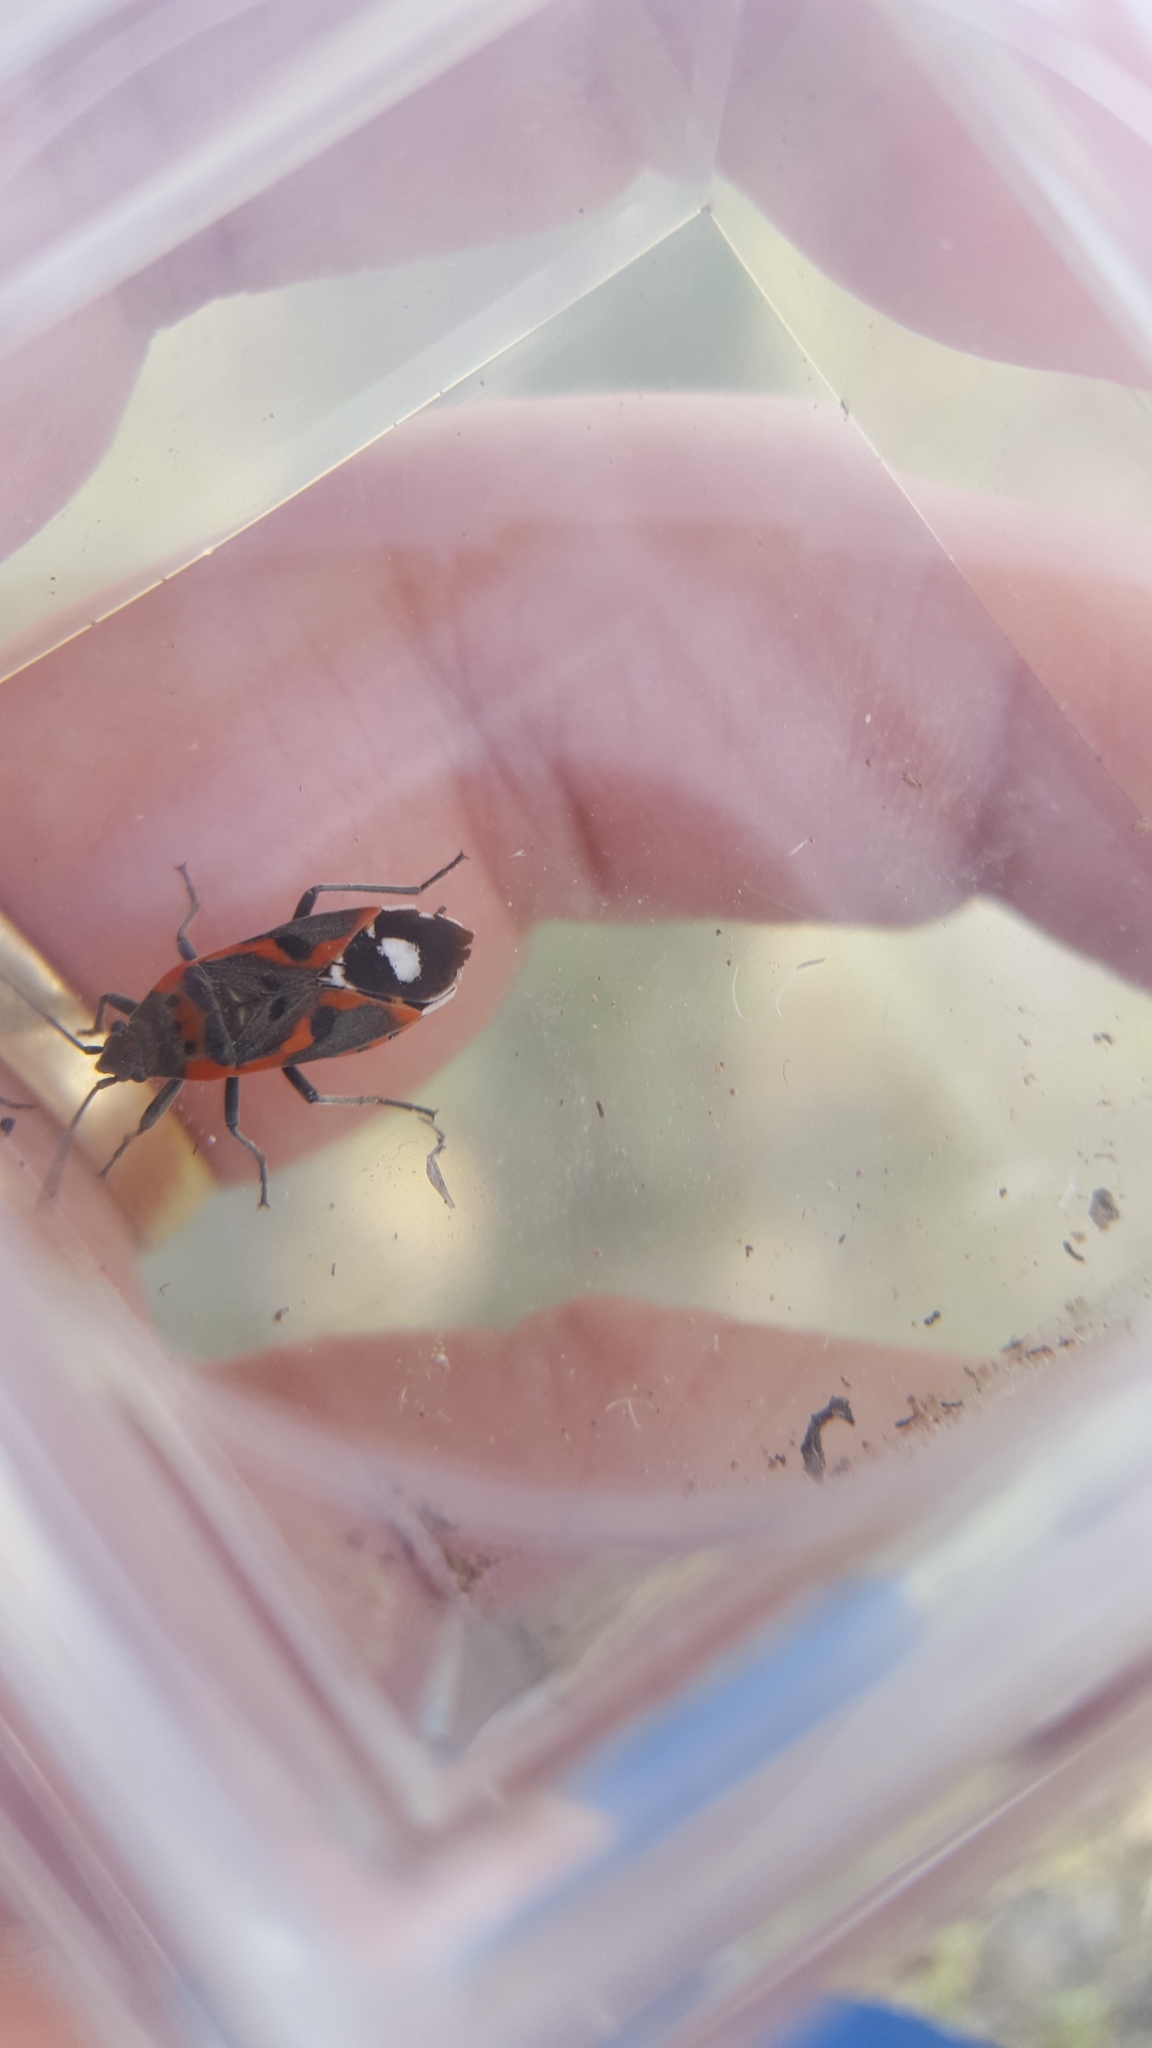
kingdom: Animalia
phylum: Arthropoda
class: Insecta
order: Hemiptera
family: Lygaeidae
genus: Lygaeus
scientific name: Lygaeus kalmii
